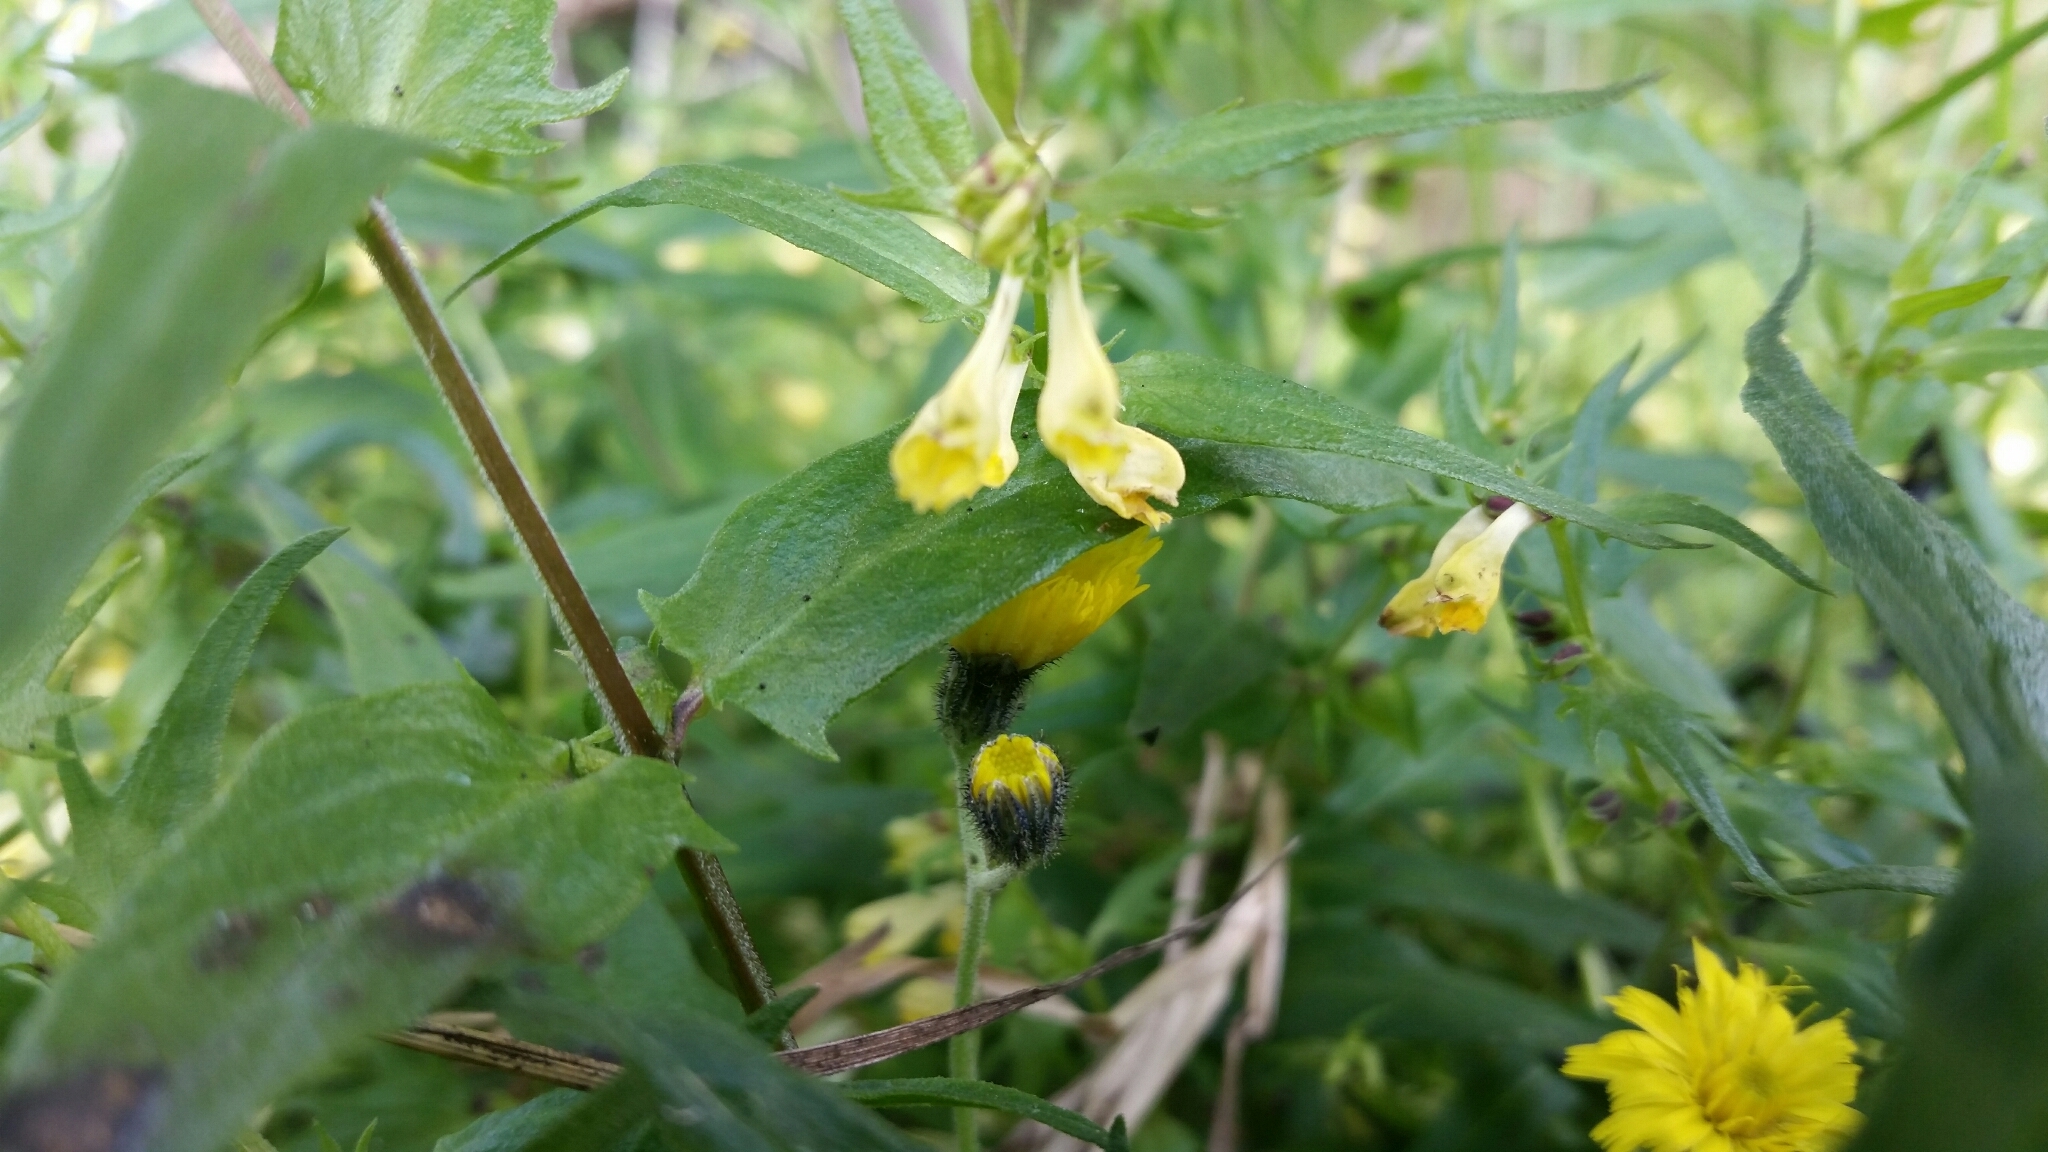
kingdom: Plantae
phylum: Tracheophyta
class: Magnoliopsida
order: Lamiales
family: Orobanchaceae
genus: Melampyrum
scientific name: Melampyrum pratense
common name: Common cow-wheat
